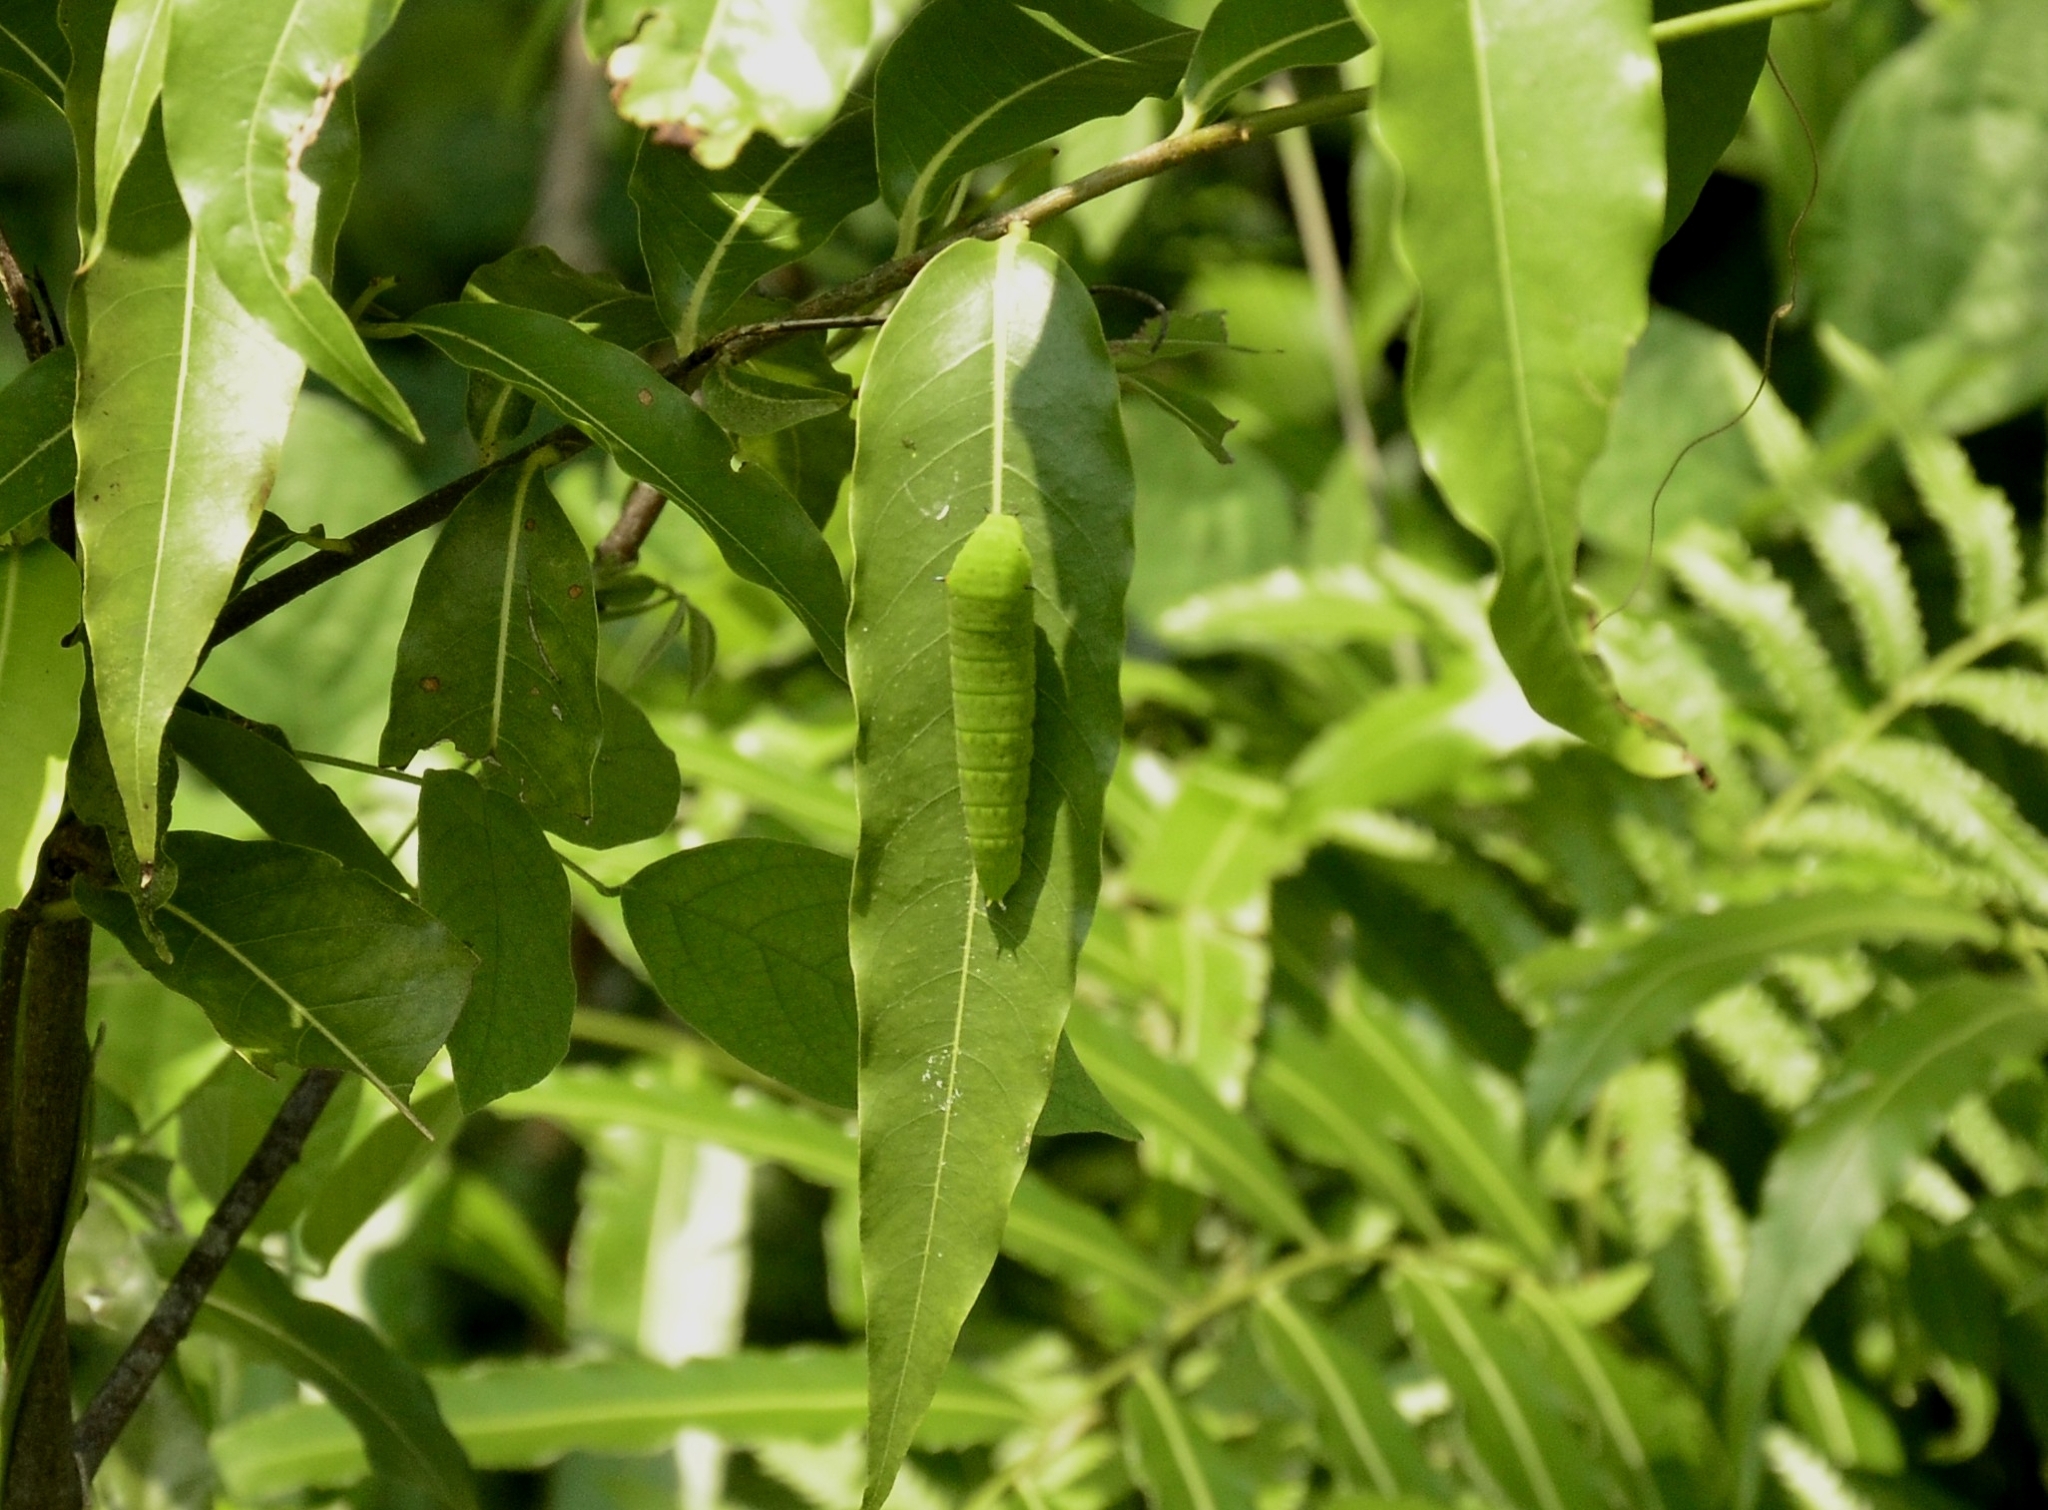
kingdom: Animalia
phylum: Arthropoda
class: Insecta
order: Lepidoptera
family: Papilionidae
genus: Graphium
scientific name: Graphium agamemnon
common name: Tailed jay
